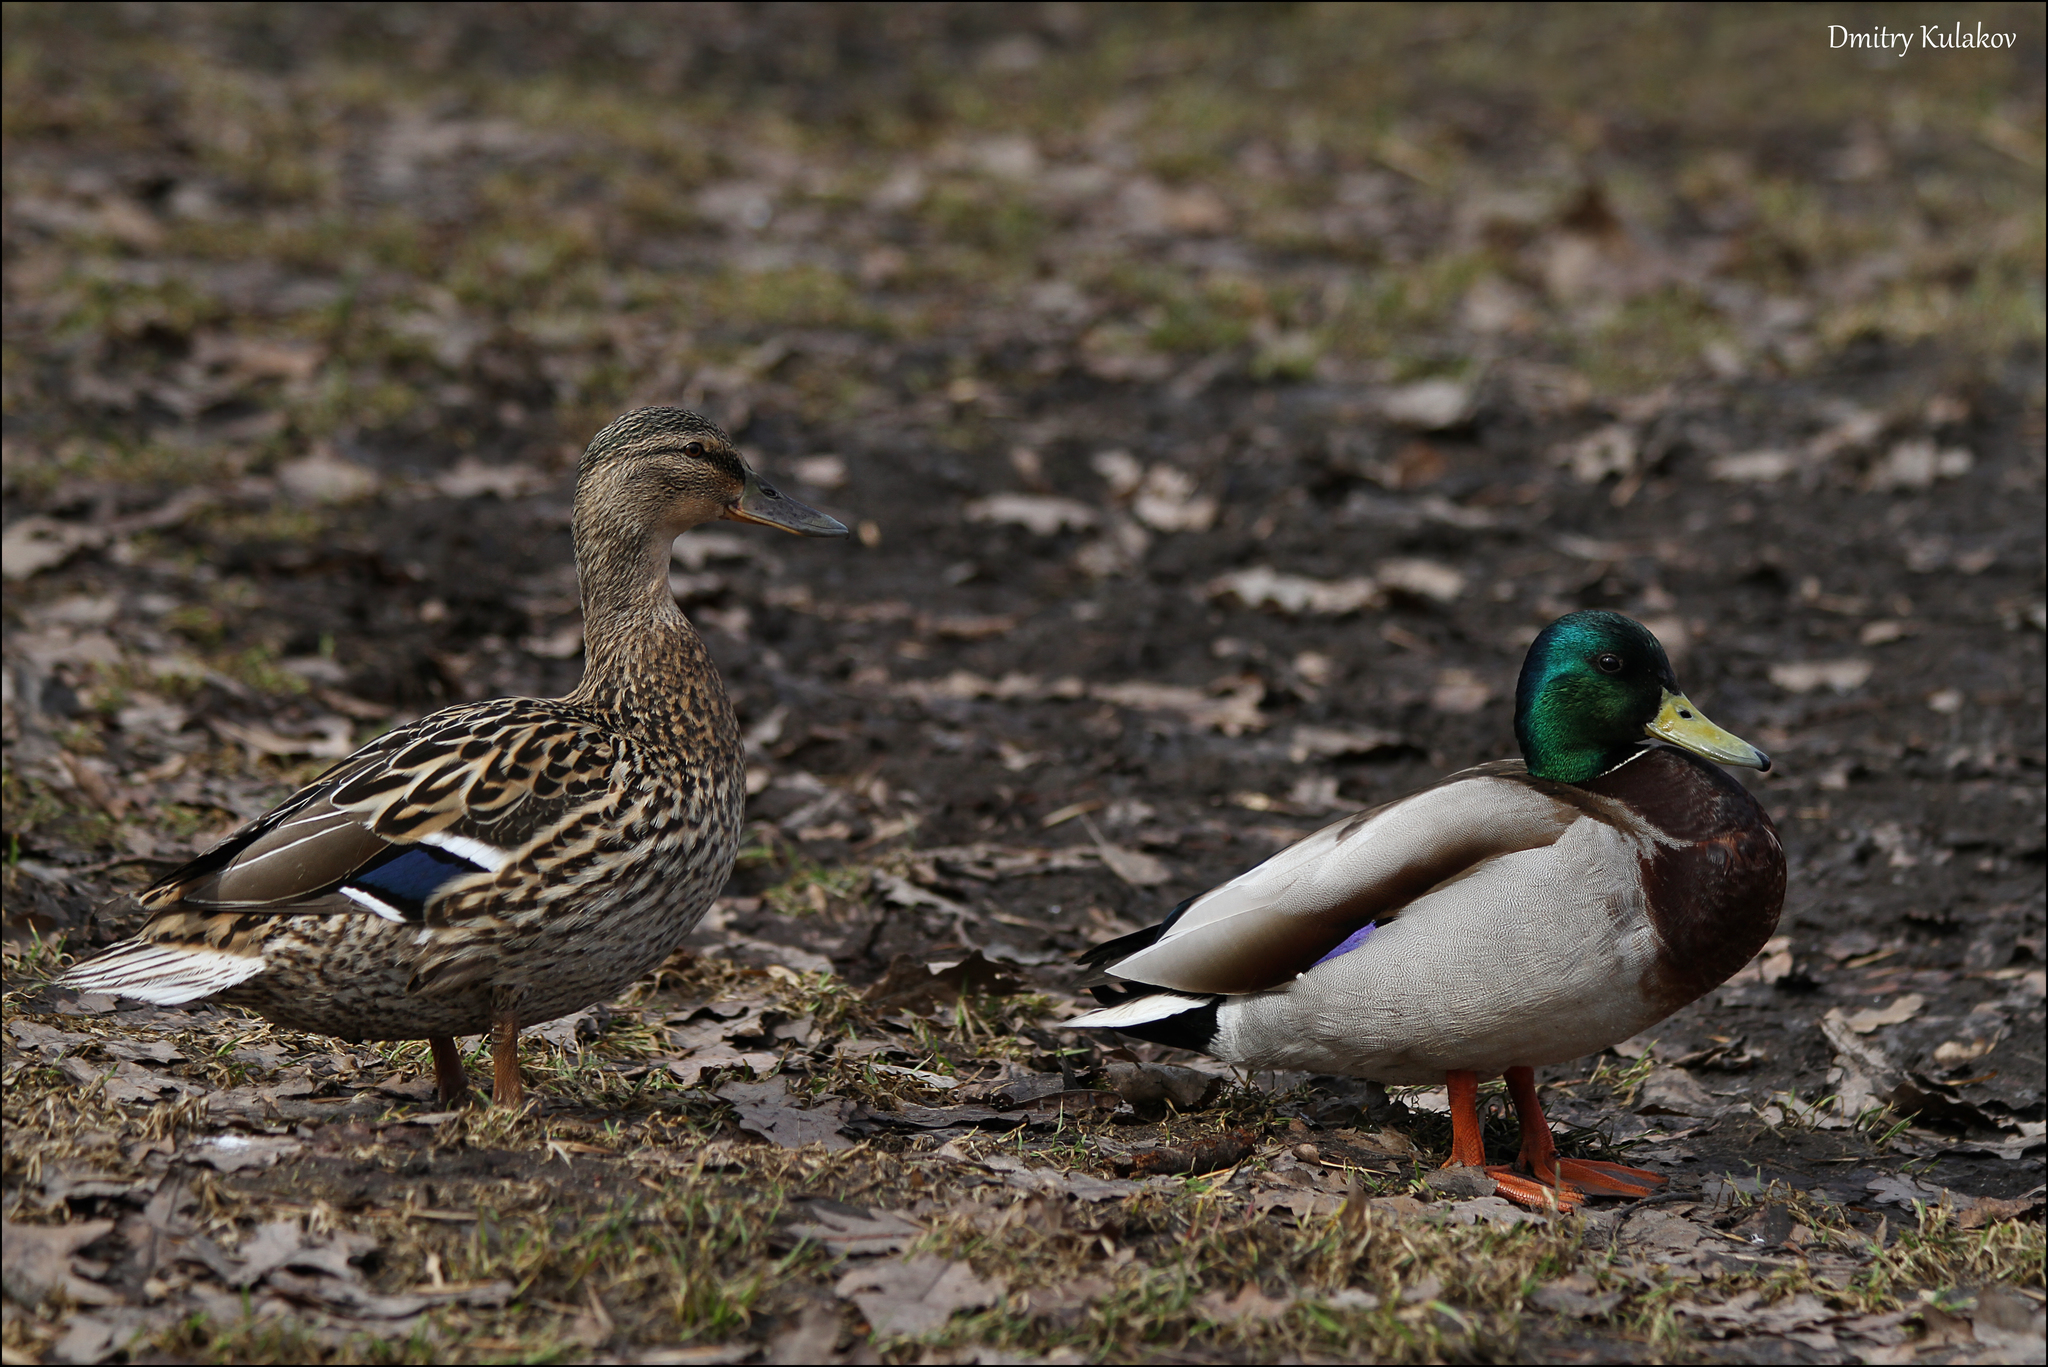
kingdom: Animalia
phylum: Chordata
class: Aves
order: Anseriformes
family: Anatidae
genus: Anas
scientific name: Anas platyrhynchos
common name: Mallard
